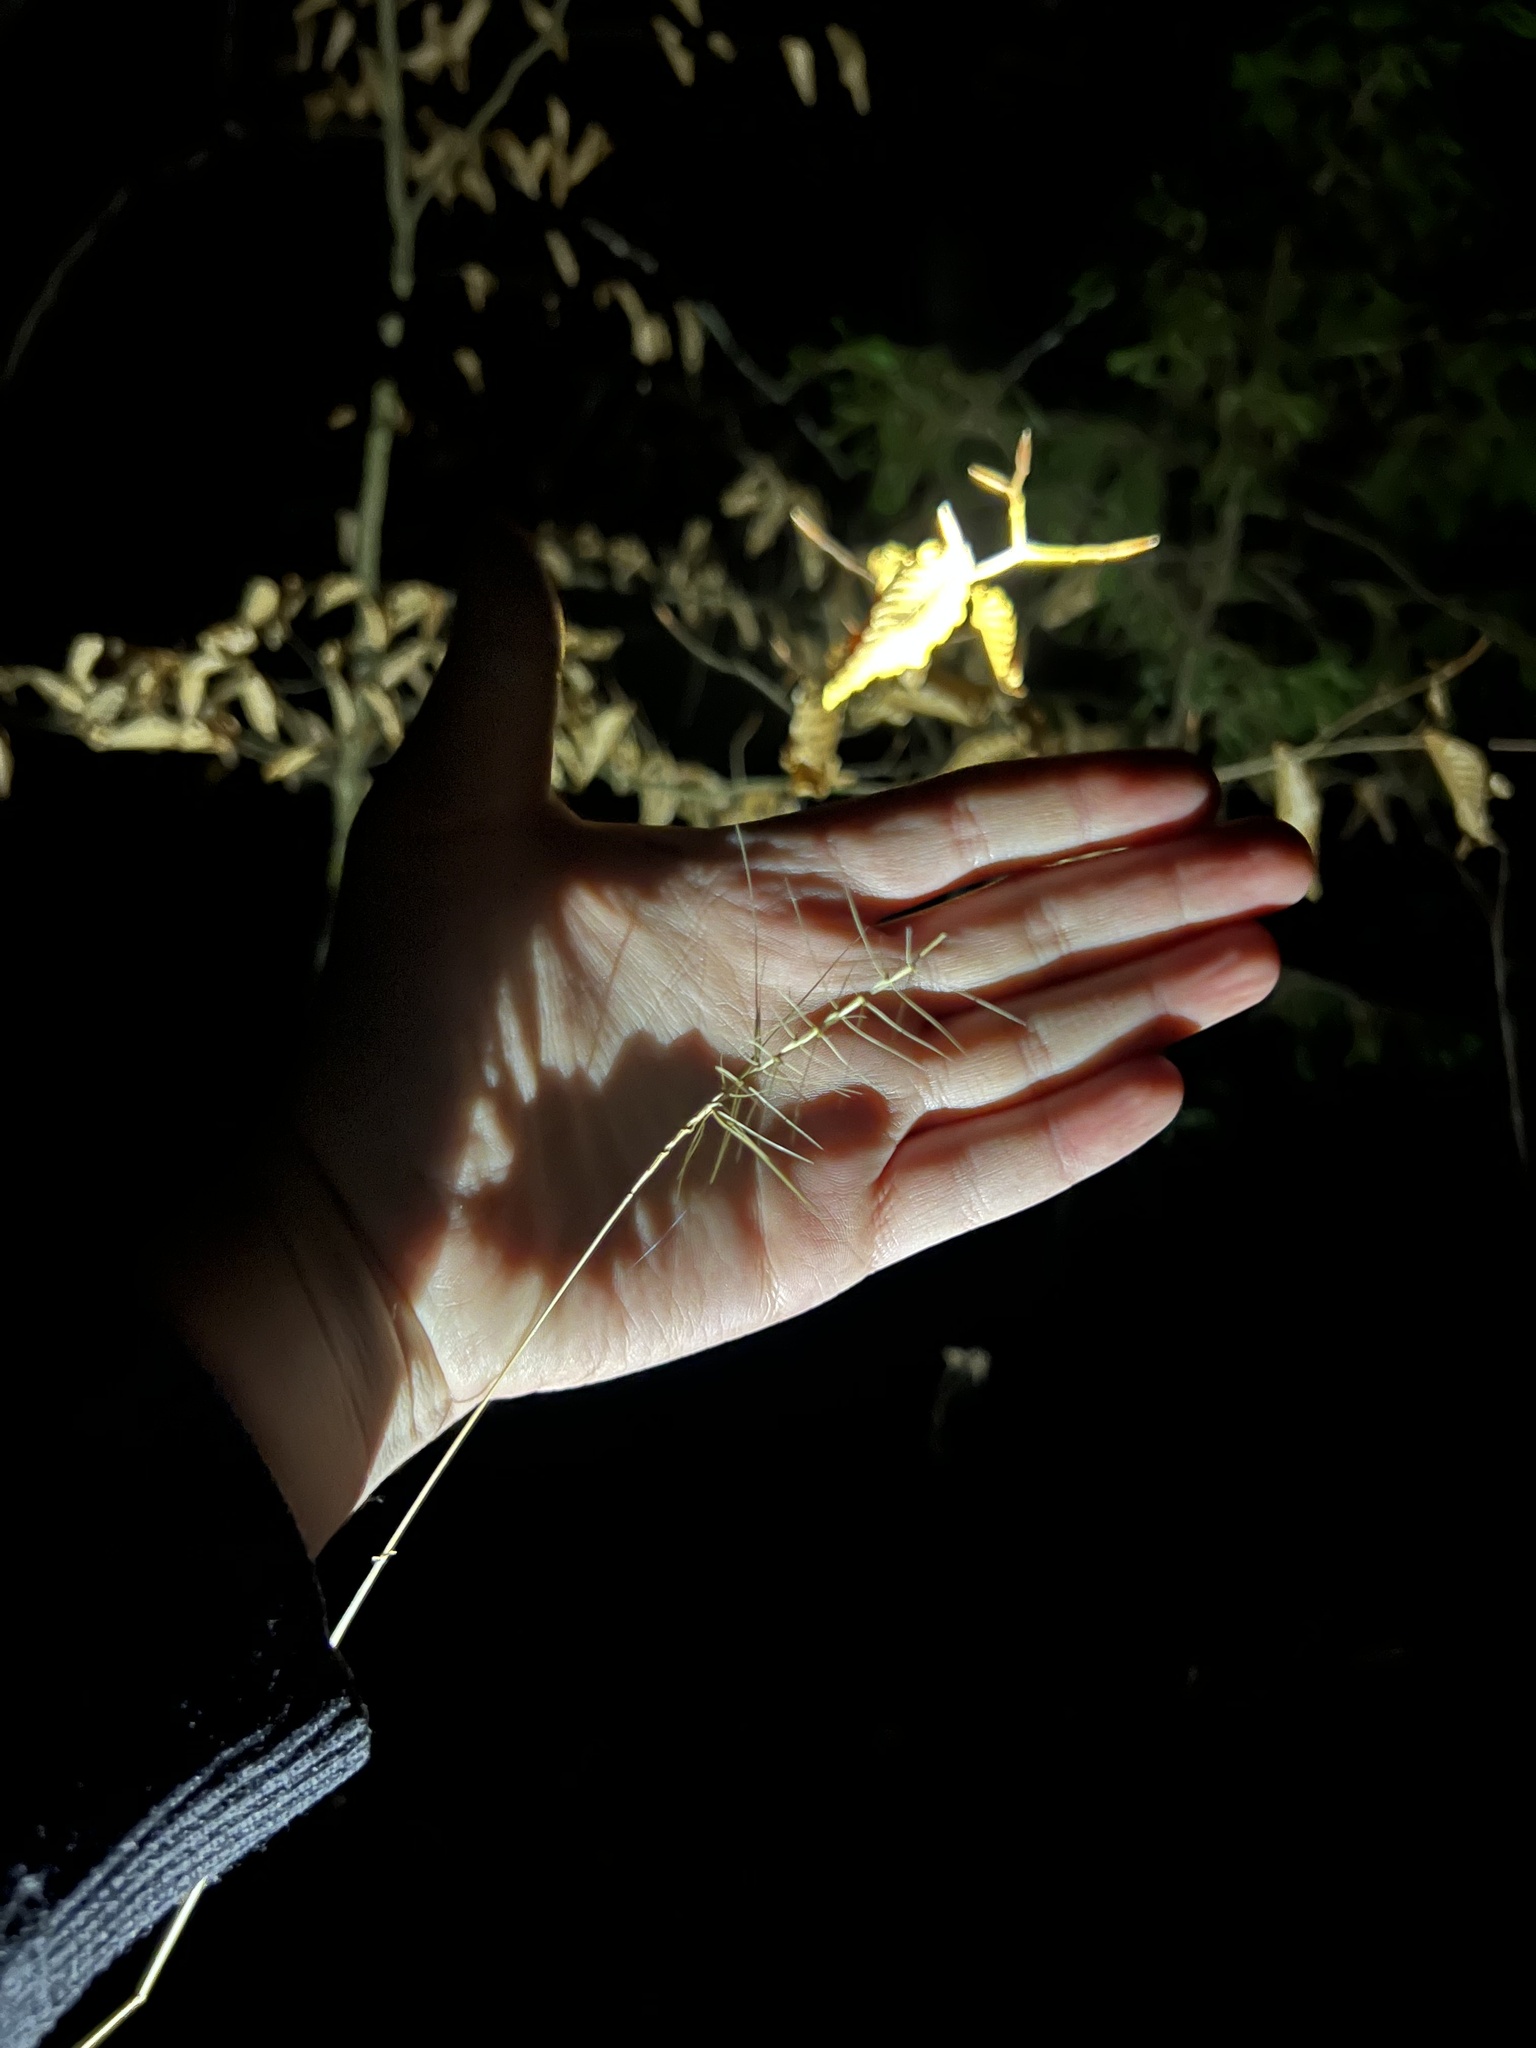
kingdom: Plantae
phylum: Tracheophyta
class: Liliopsida
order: Poales
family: Poaceae
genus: Elymus
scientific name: Elymus hystrix
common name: Bottlebrush grass
